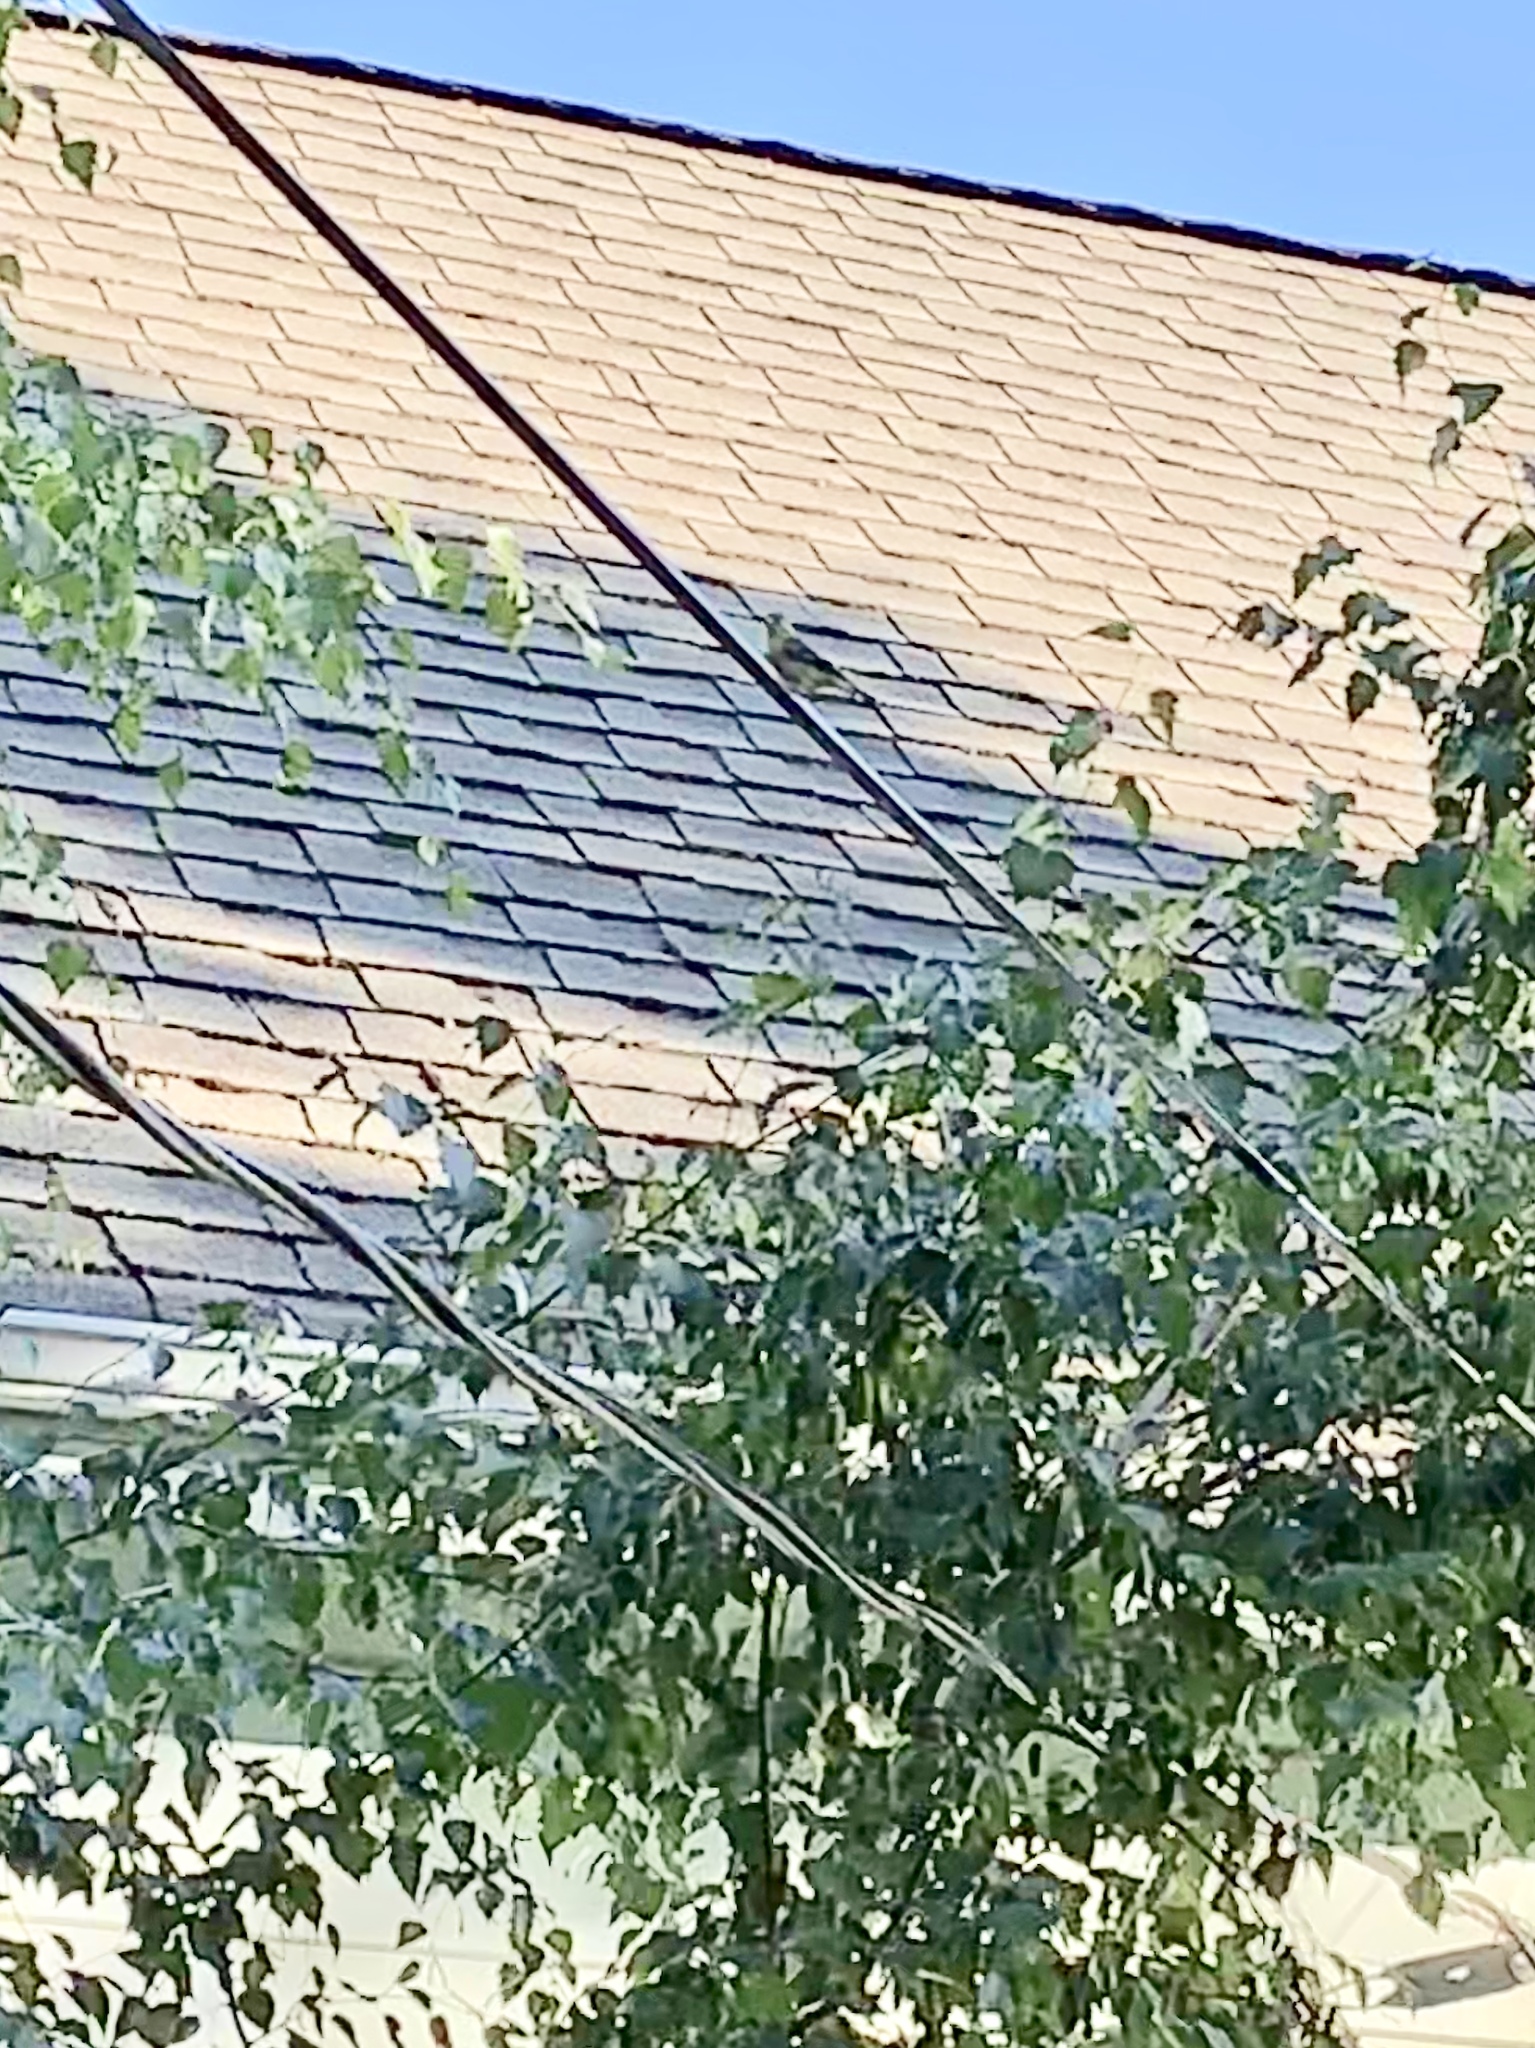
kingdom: Animalia
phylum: Chordata
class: Aves
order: Passeriformes
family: Fringillidae
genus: Spinus
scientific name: Spinus tristis
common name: American goldfinch
